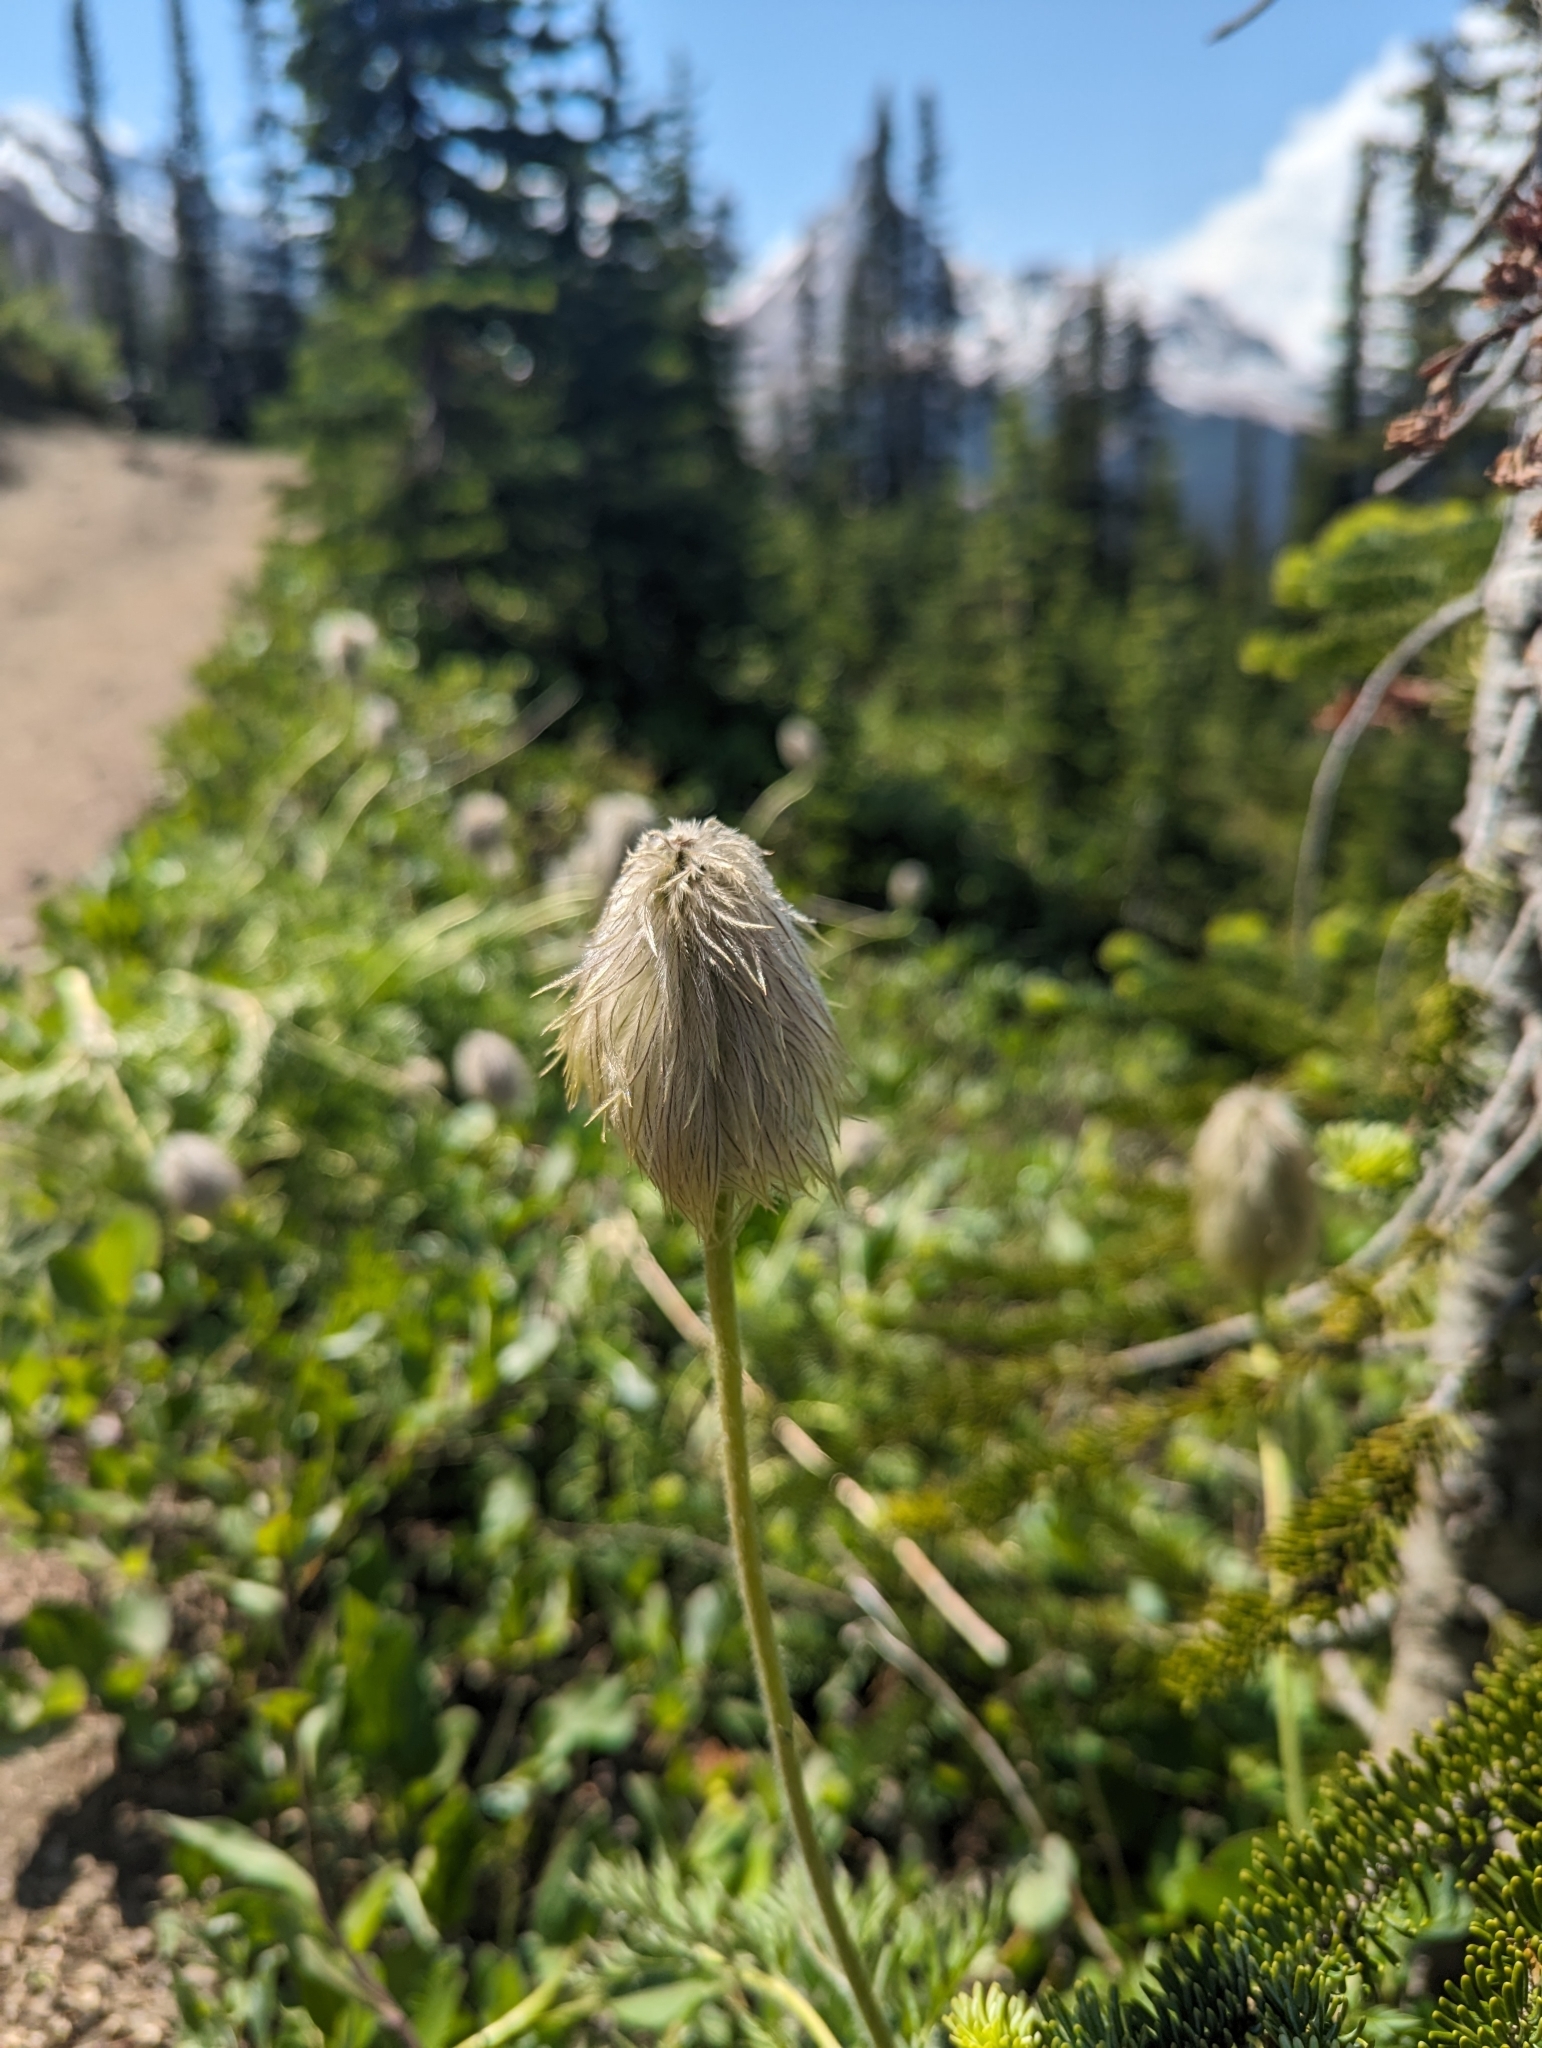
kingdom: Plantae
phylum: Tracheophyta
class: Magnoliopsida
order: Ranunculales
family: Ranunculaceae
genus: Pulsatilla
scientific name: Pulsatilla occidentalis
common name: Mountain pasqueflower
